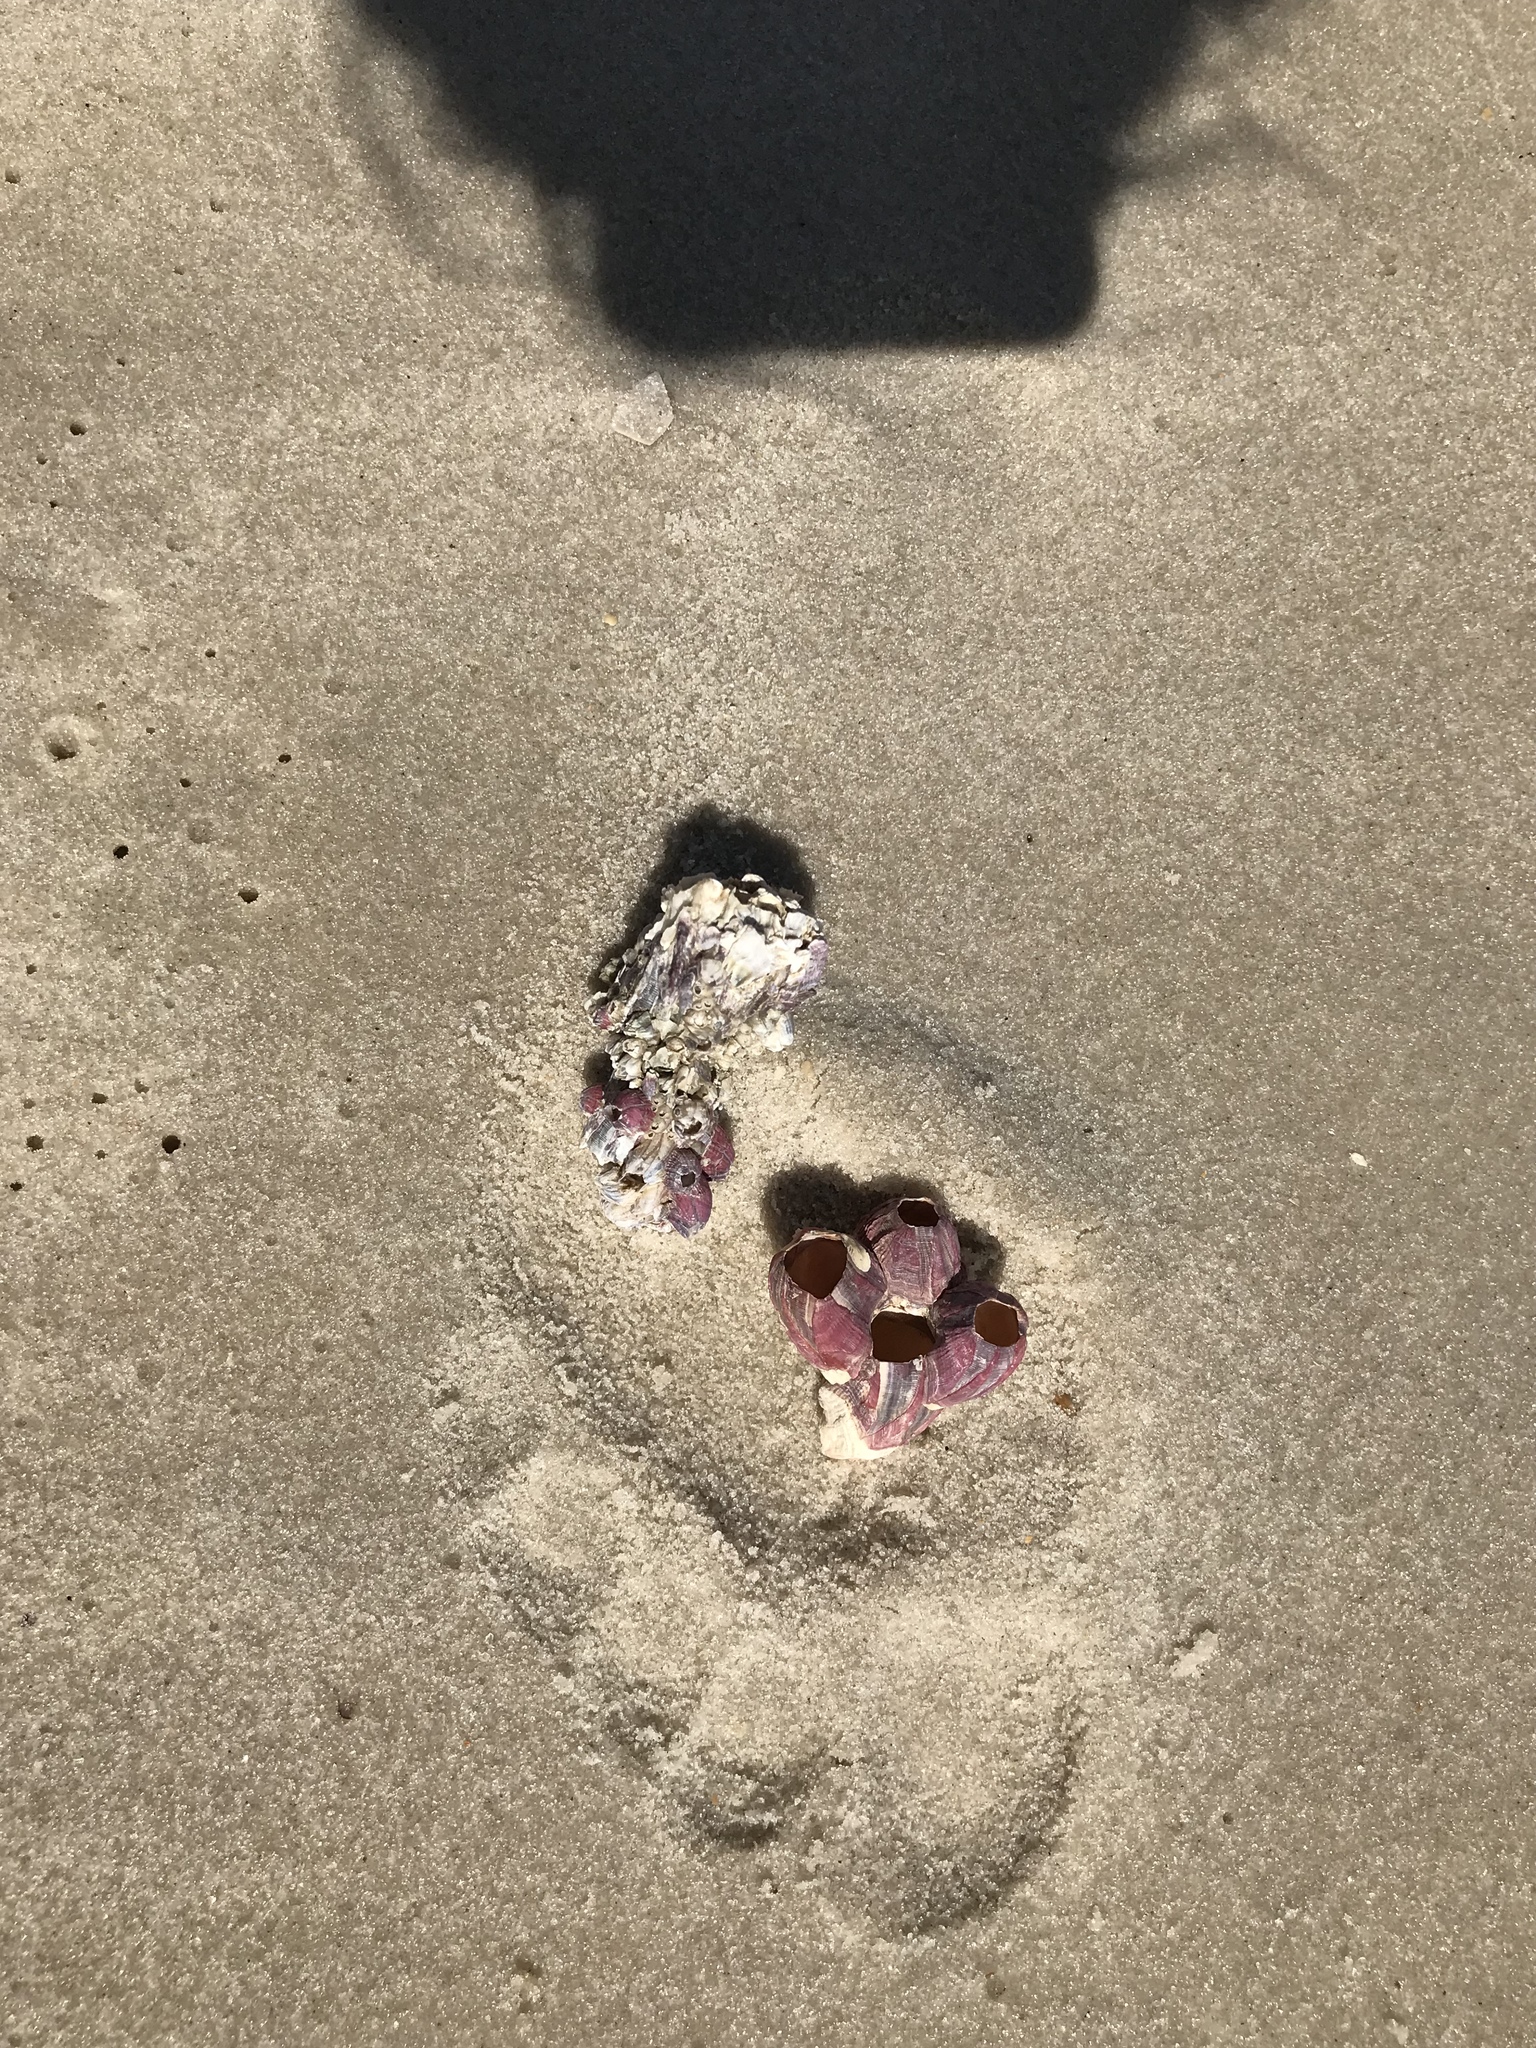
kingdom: Animalia
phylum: Arthropoda
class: Maxillopoda
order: Sessilia
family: Balanidae
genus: Megabalanus
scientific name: Megabalanus tintinnabulum
